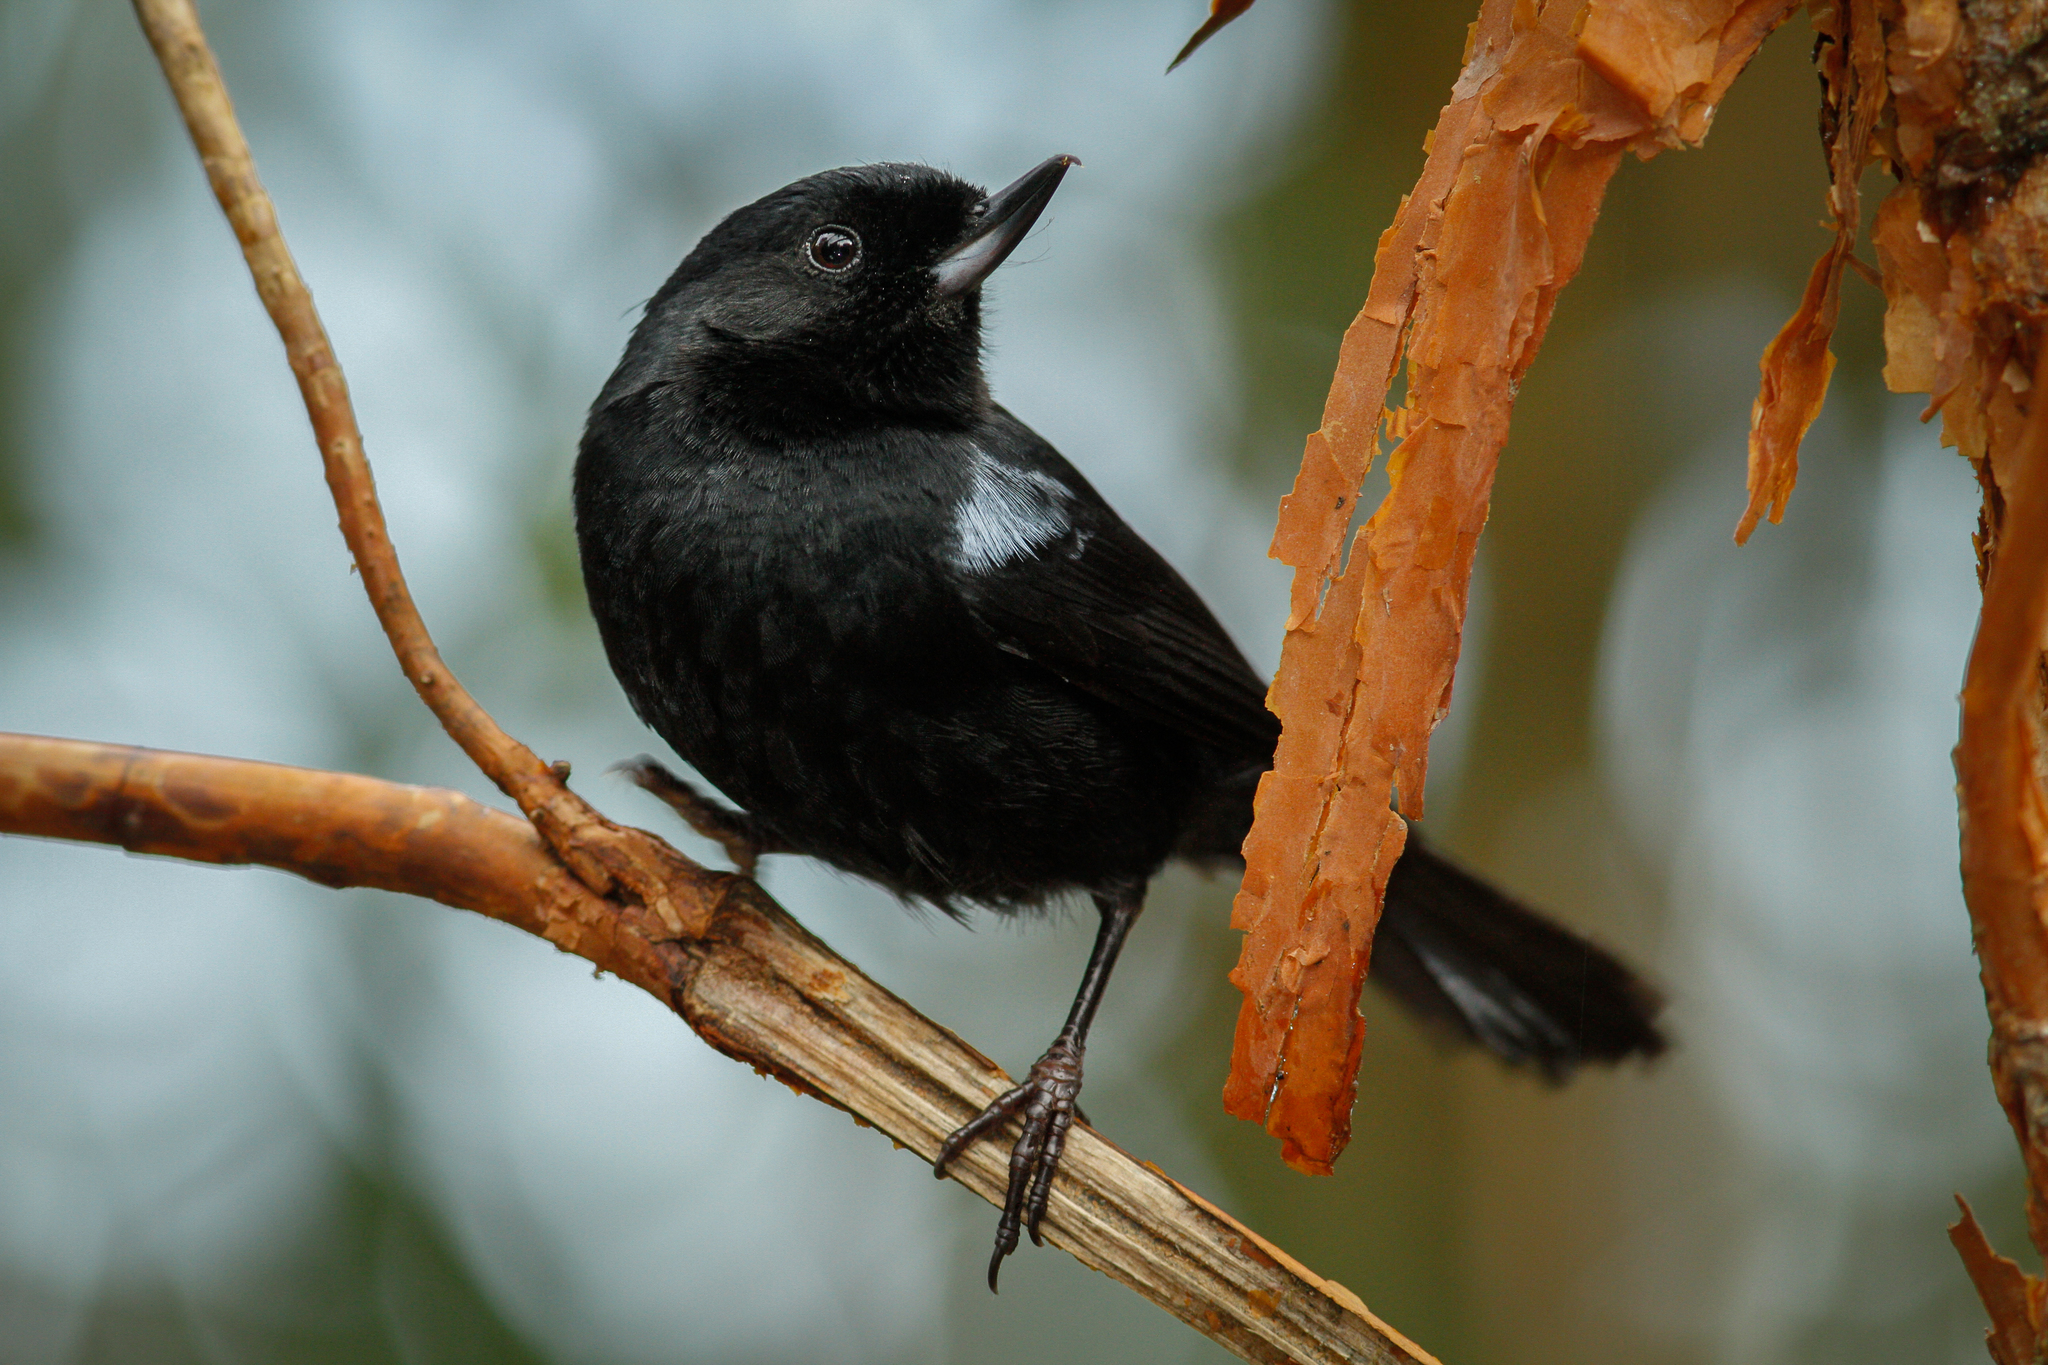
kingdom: Animalia
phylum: Chordata
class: Aves
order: Passeriformes
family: Thraupidae
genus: Diglossa
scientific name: Diglossa lafresnayii
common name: Glossy flowerpiercer
